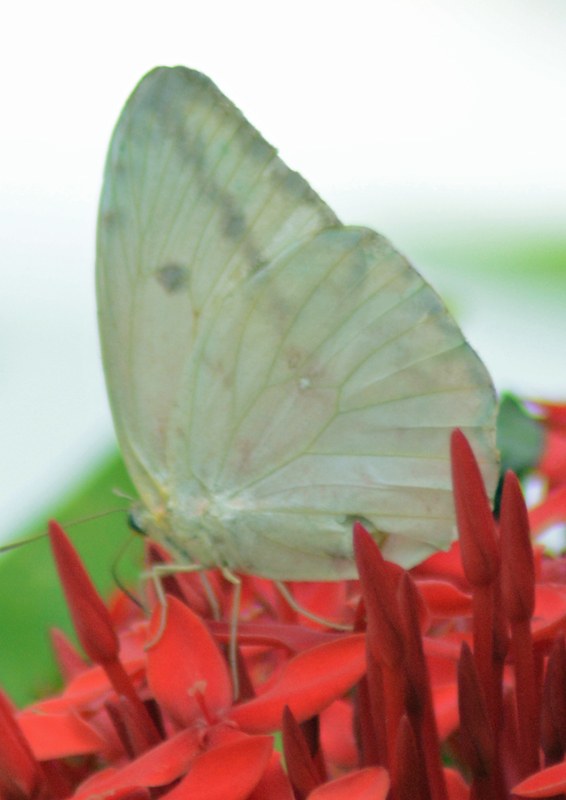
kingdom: Animalia
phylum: Arthropoda
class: Insecta
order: Lepidoptera
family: Pieridae
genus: Phoebis
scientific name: Phoebis agarithe
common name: Large orange sulphur
